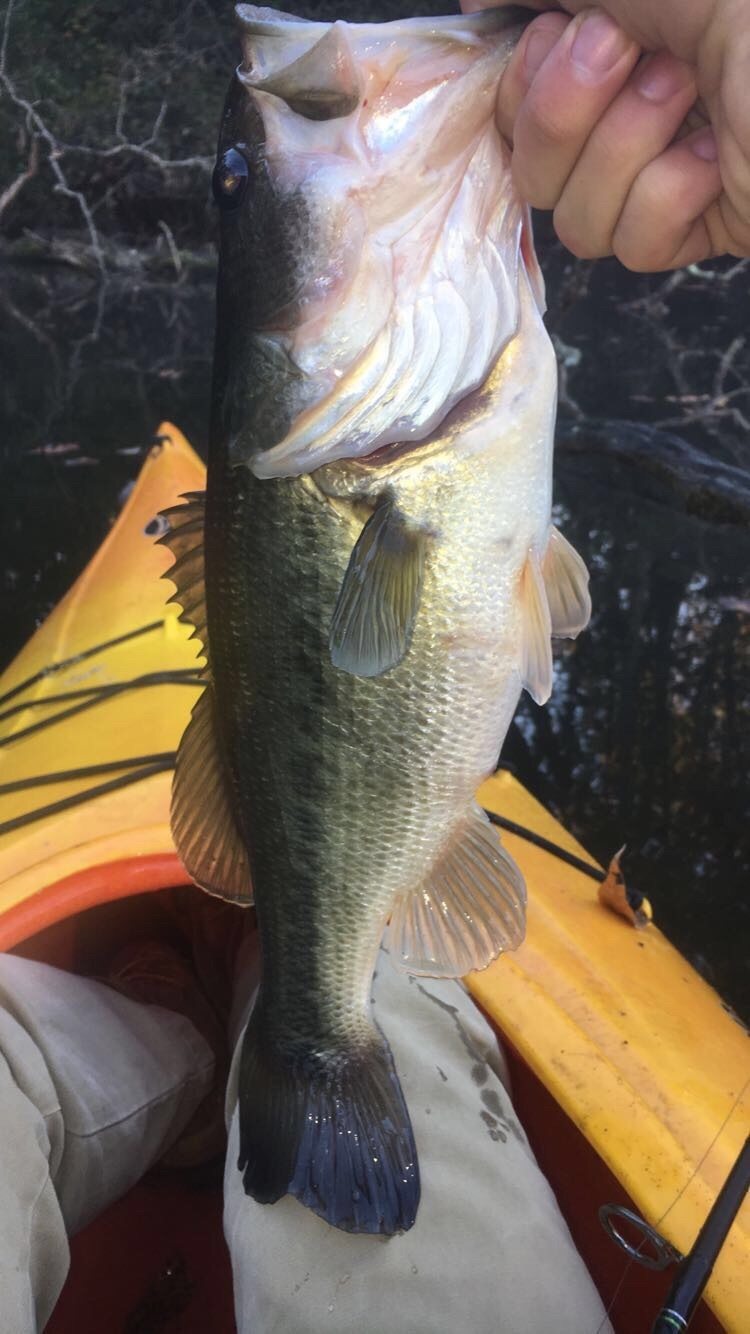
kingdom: Animalia
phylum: Chordata
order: Perciformes
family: Centrarchidae
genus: Micropterus
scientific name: Micropterus
